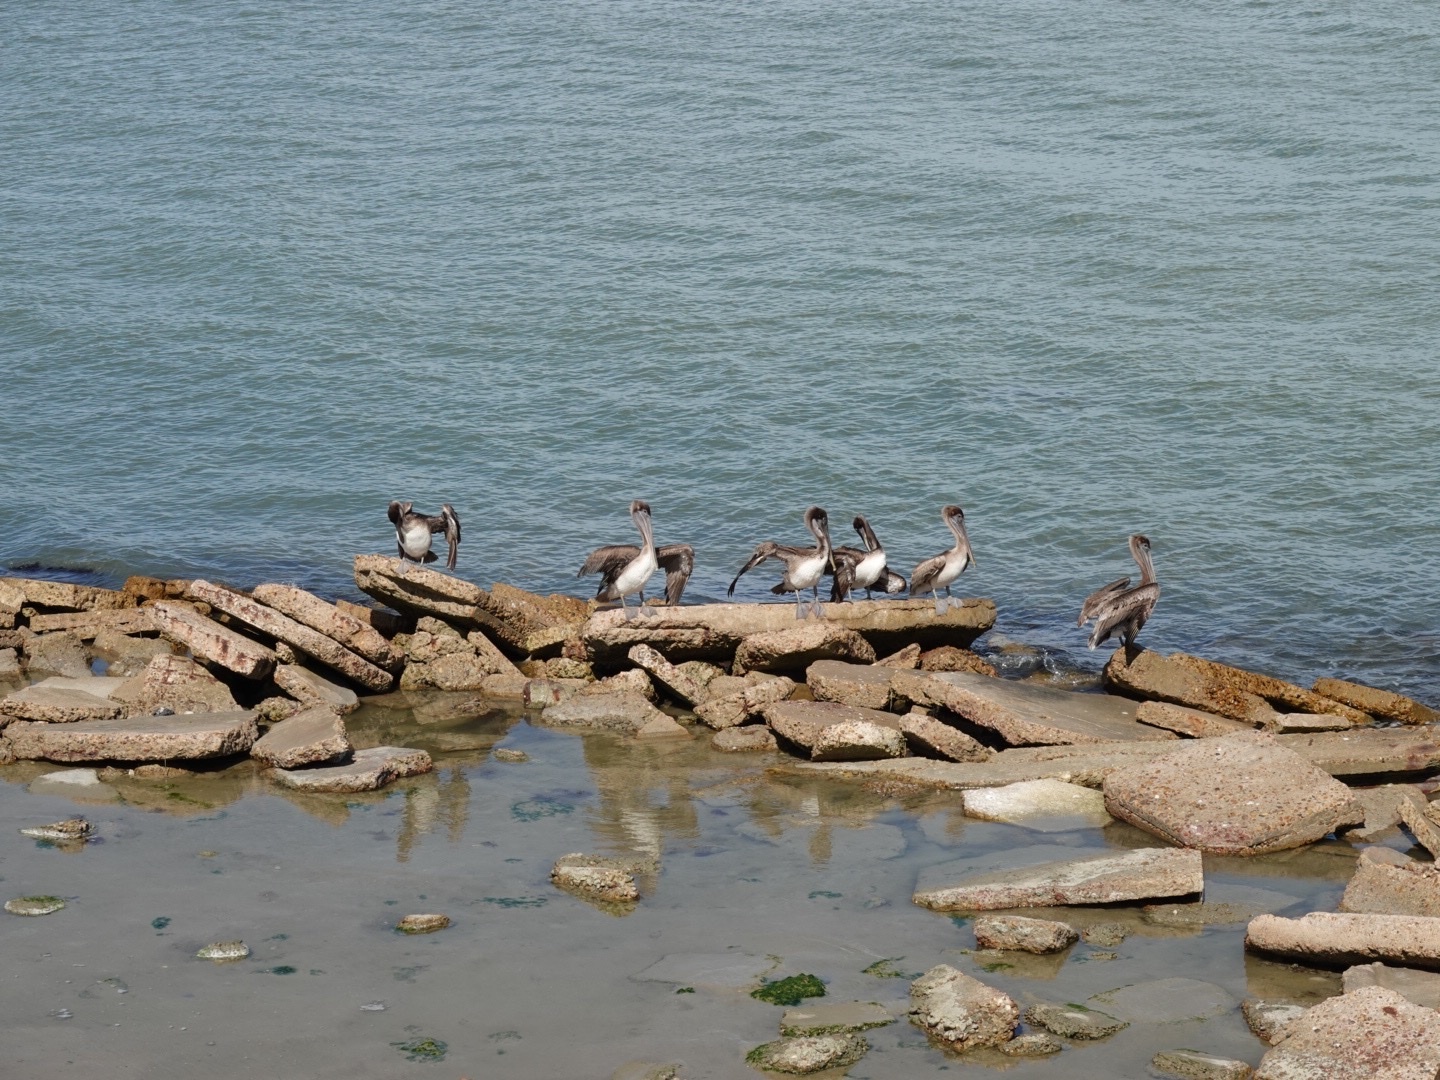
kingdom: Animalia
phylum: Chordata
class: Aves
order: Pelecaniformes
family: Pelecanidae
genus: Pelecanus
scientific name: Pelecanus occidentalis
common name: Brown pelican
